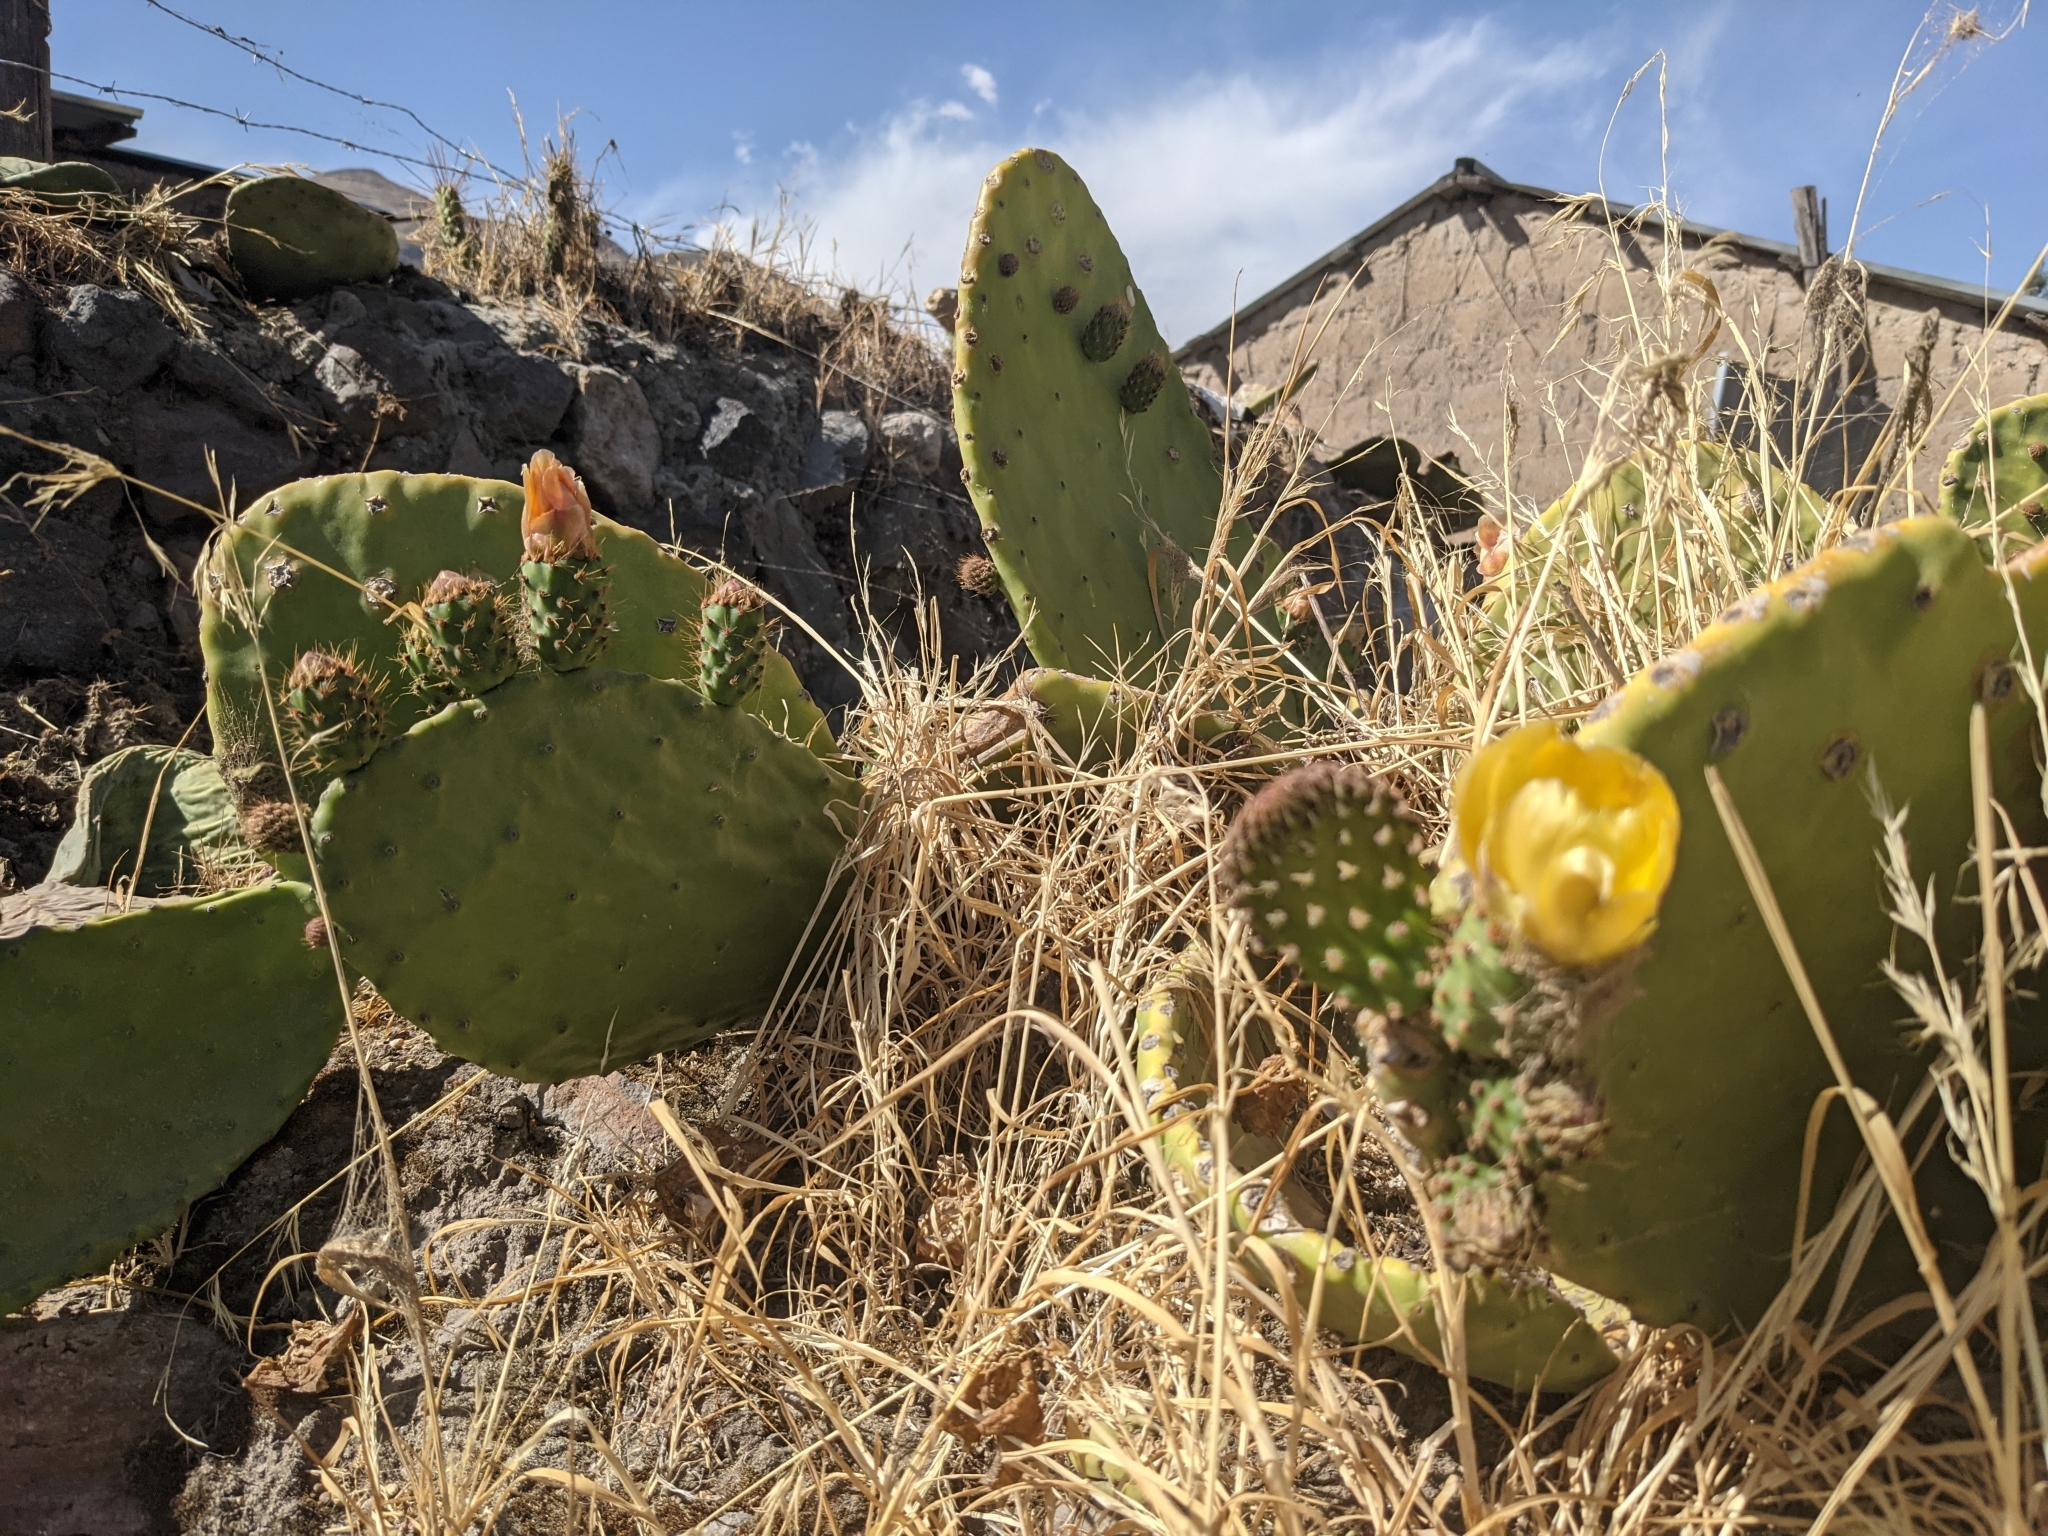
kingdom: Plantae
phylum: Tracheophyta
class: Magnoliopsida
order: Caryophyllales
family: Cactaceae
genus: Opuntia
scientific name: Opuntia ficus-indica
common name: Barbary fig
